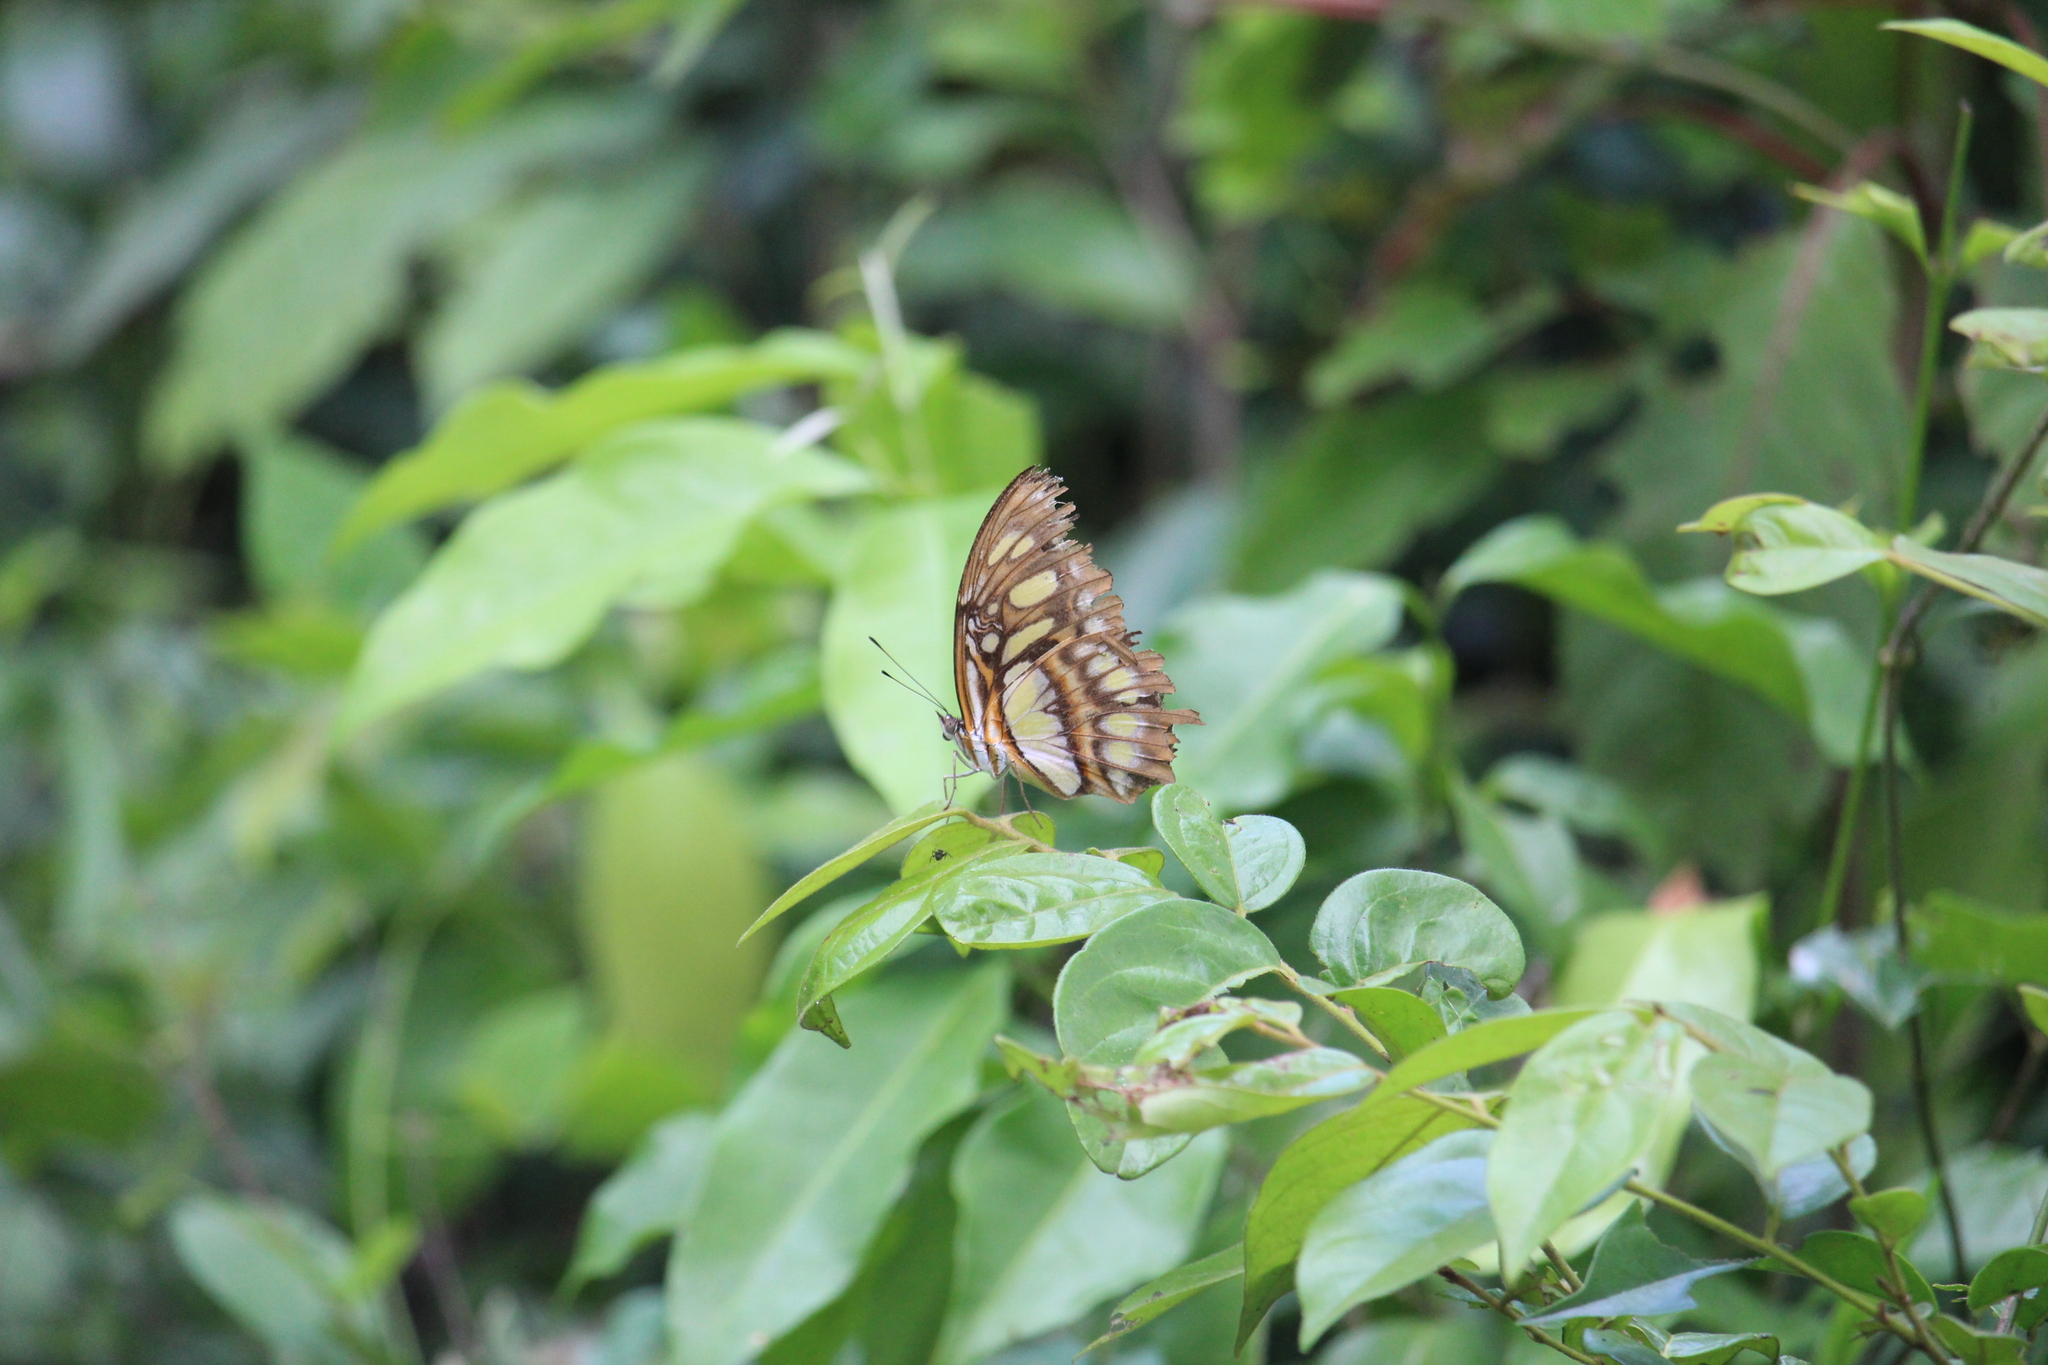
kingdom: Animalia
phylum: Arthropoda
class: Insecta
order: Lepidoptera
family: Nymphalidae
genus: Siproeta
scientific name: Siproeta stelenes
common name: Malachite
